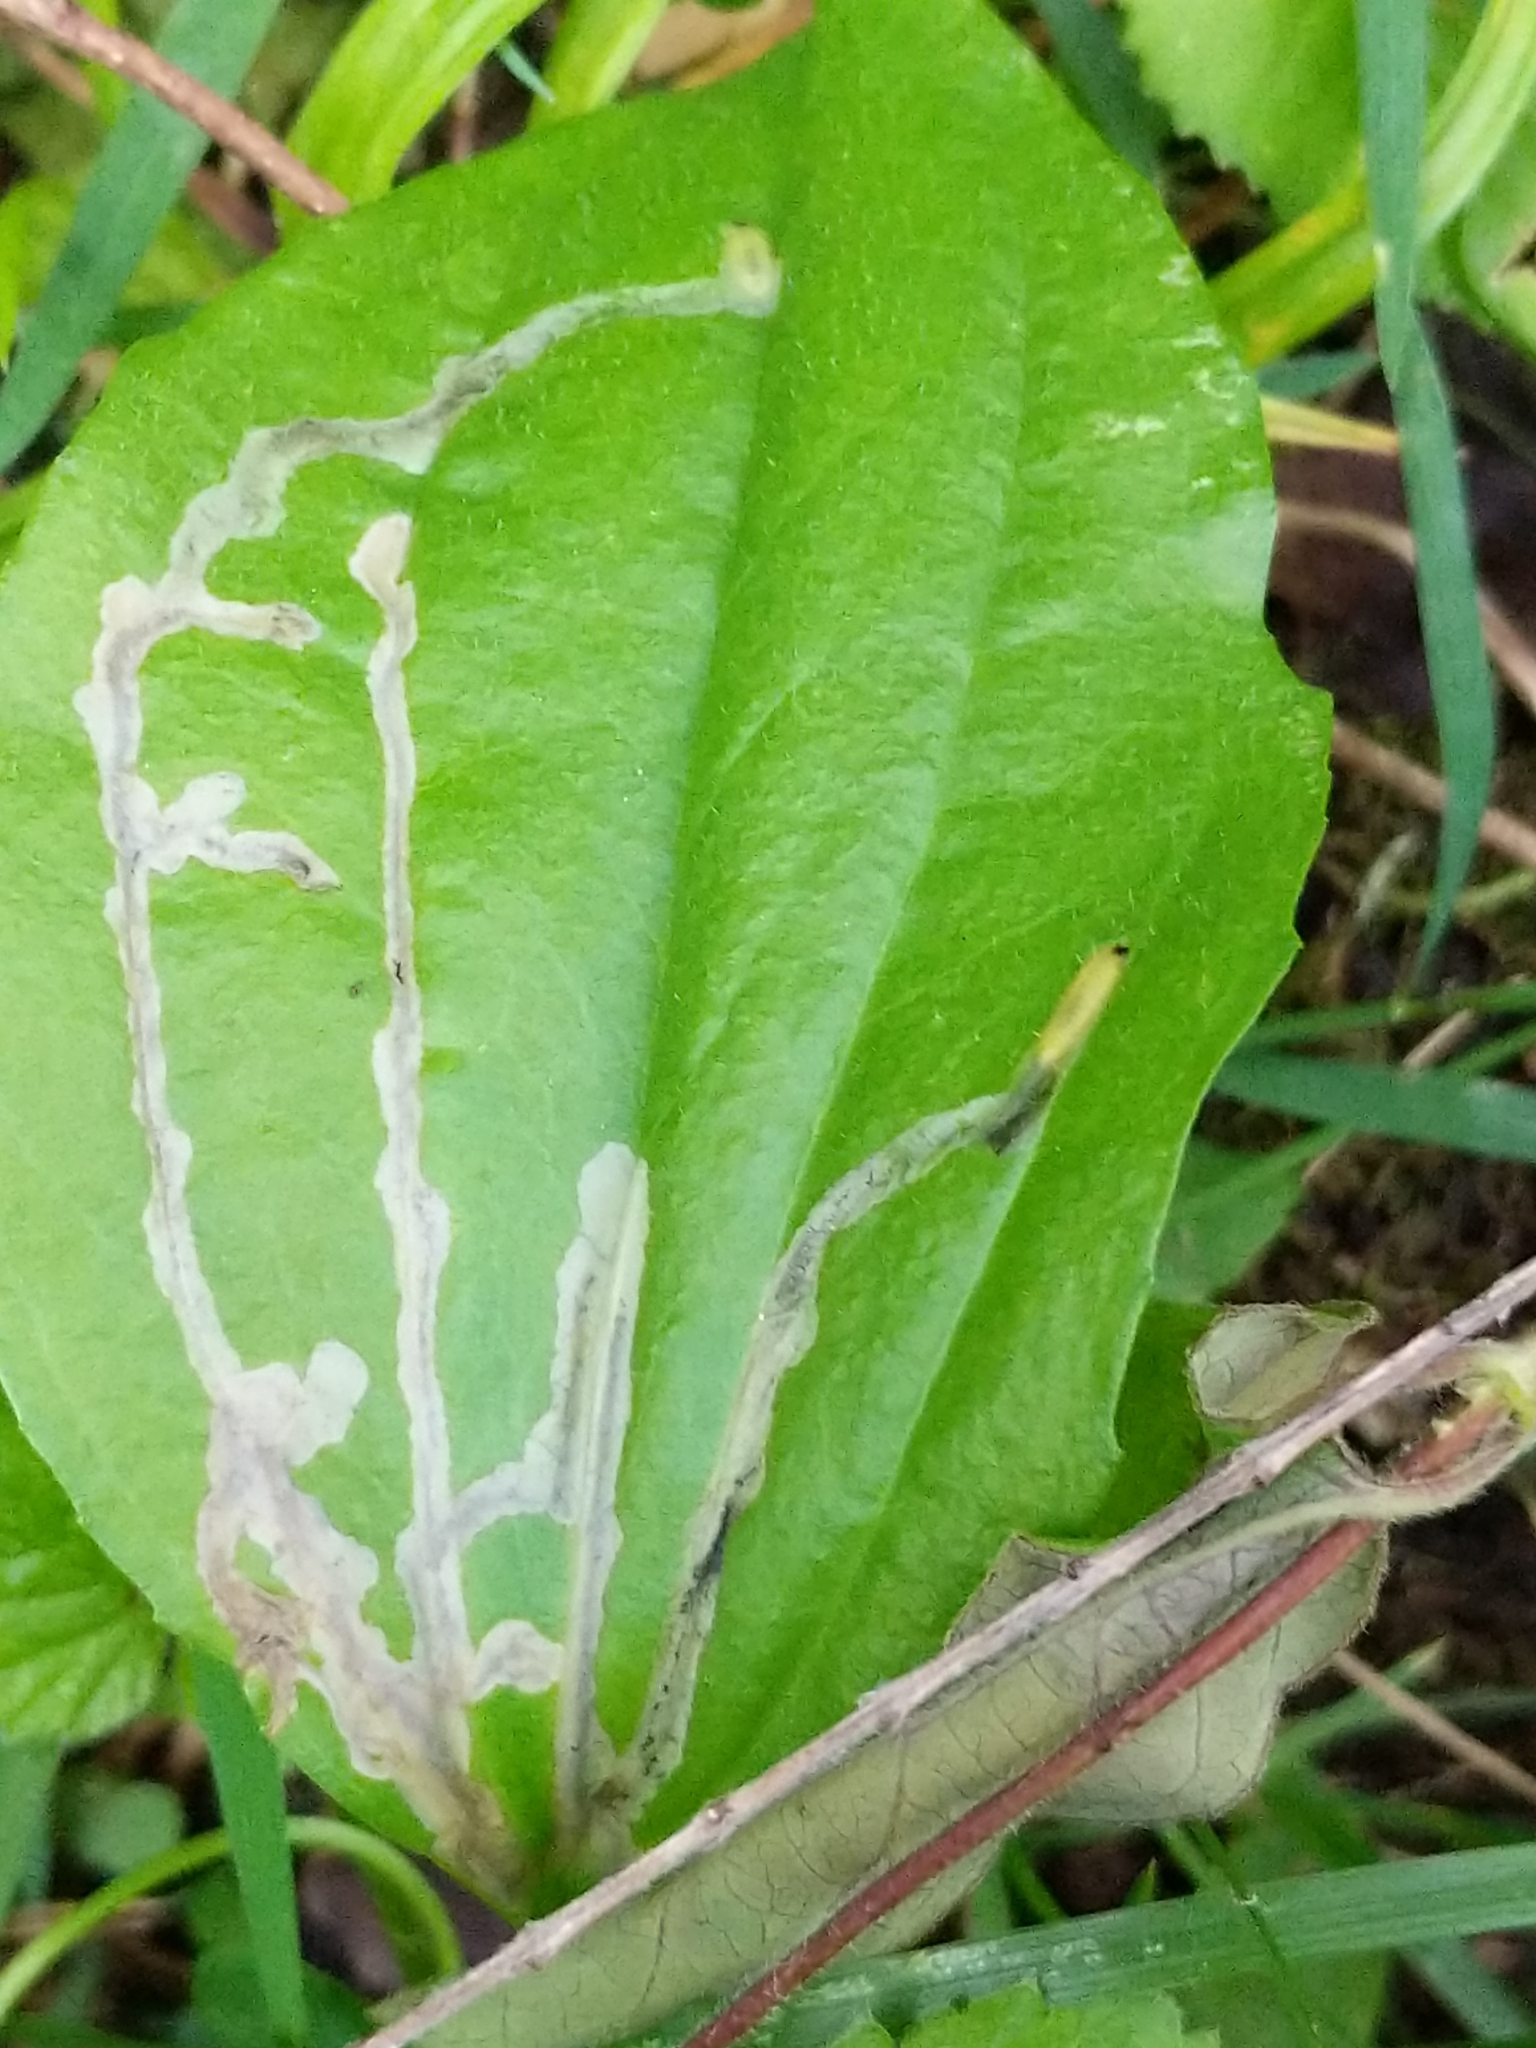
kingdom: Animalia
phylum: Arthropoda
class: Insecta
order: Coleoptera
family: Chrysomelidae
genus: Dibolia
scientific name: Dibolia borealis
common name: Northern plantain flea beetle
